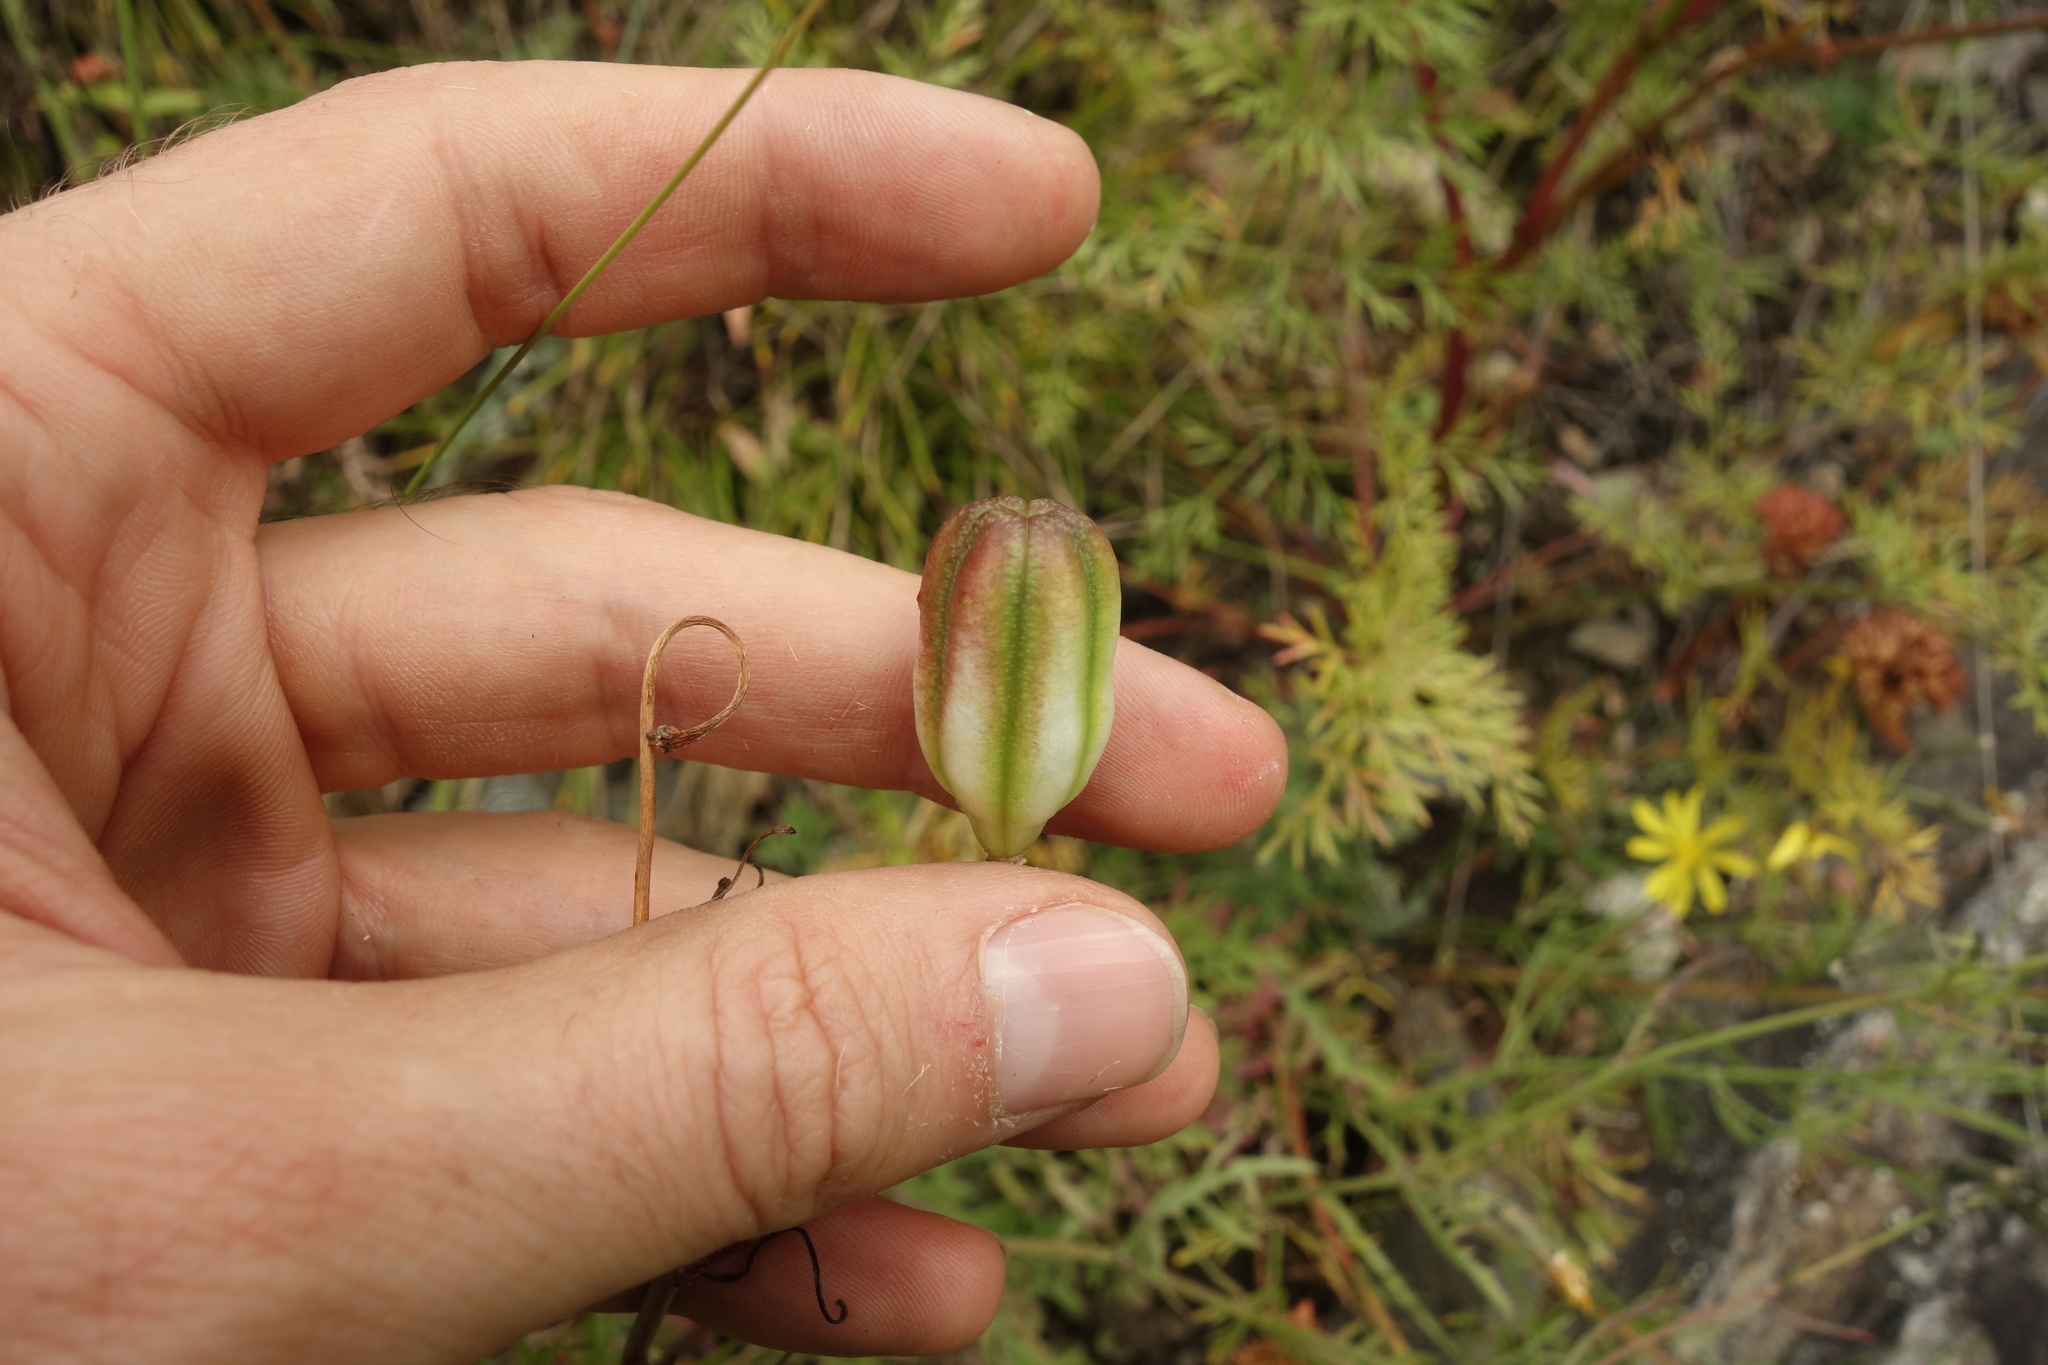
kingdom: Plantae
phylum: Tracheophyta
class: Liliopsida
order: Liliales
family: Liliaceae
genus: Lilium
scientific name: Lilium pumilum
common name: Coral lily
